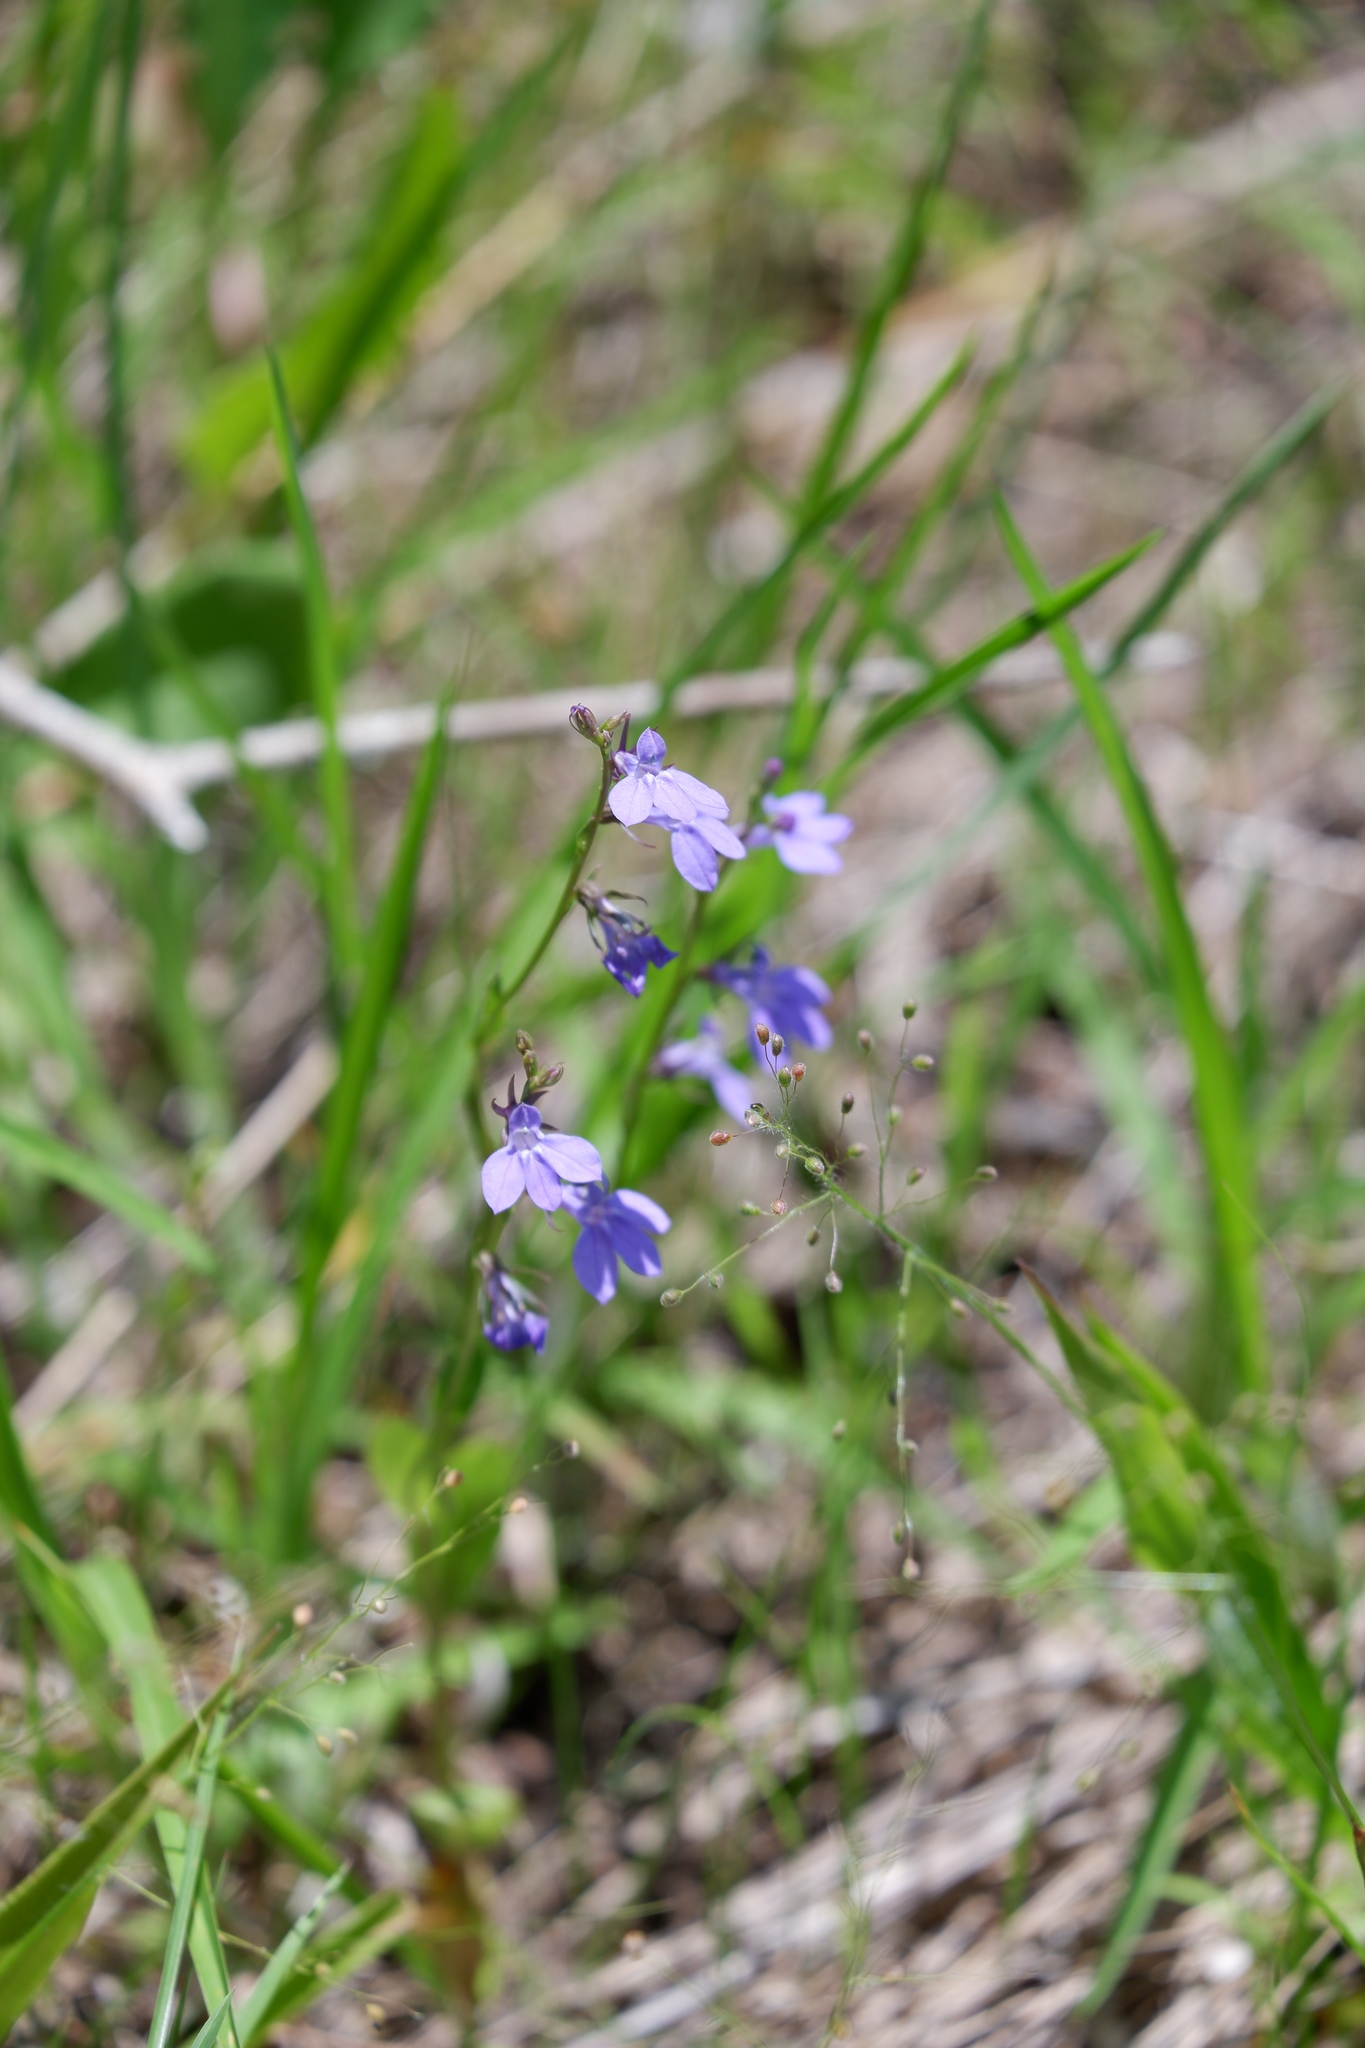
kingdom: Plantae
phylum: Tracheophyta
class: Magnoliopsida
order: Asterales
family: Campanulaceae
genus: Lobelia
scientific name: Lobelia gattingeri
